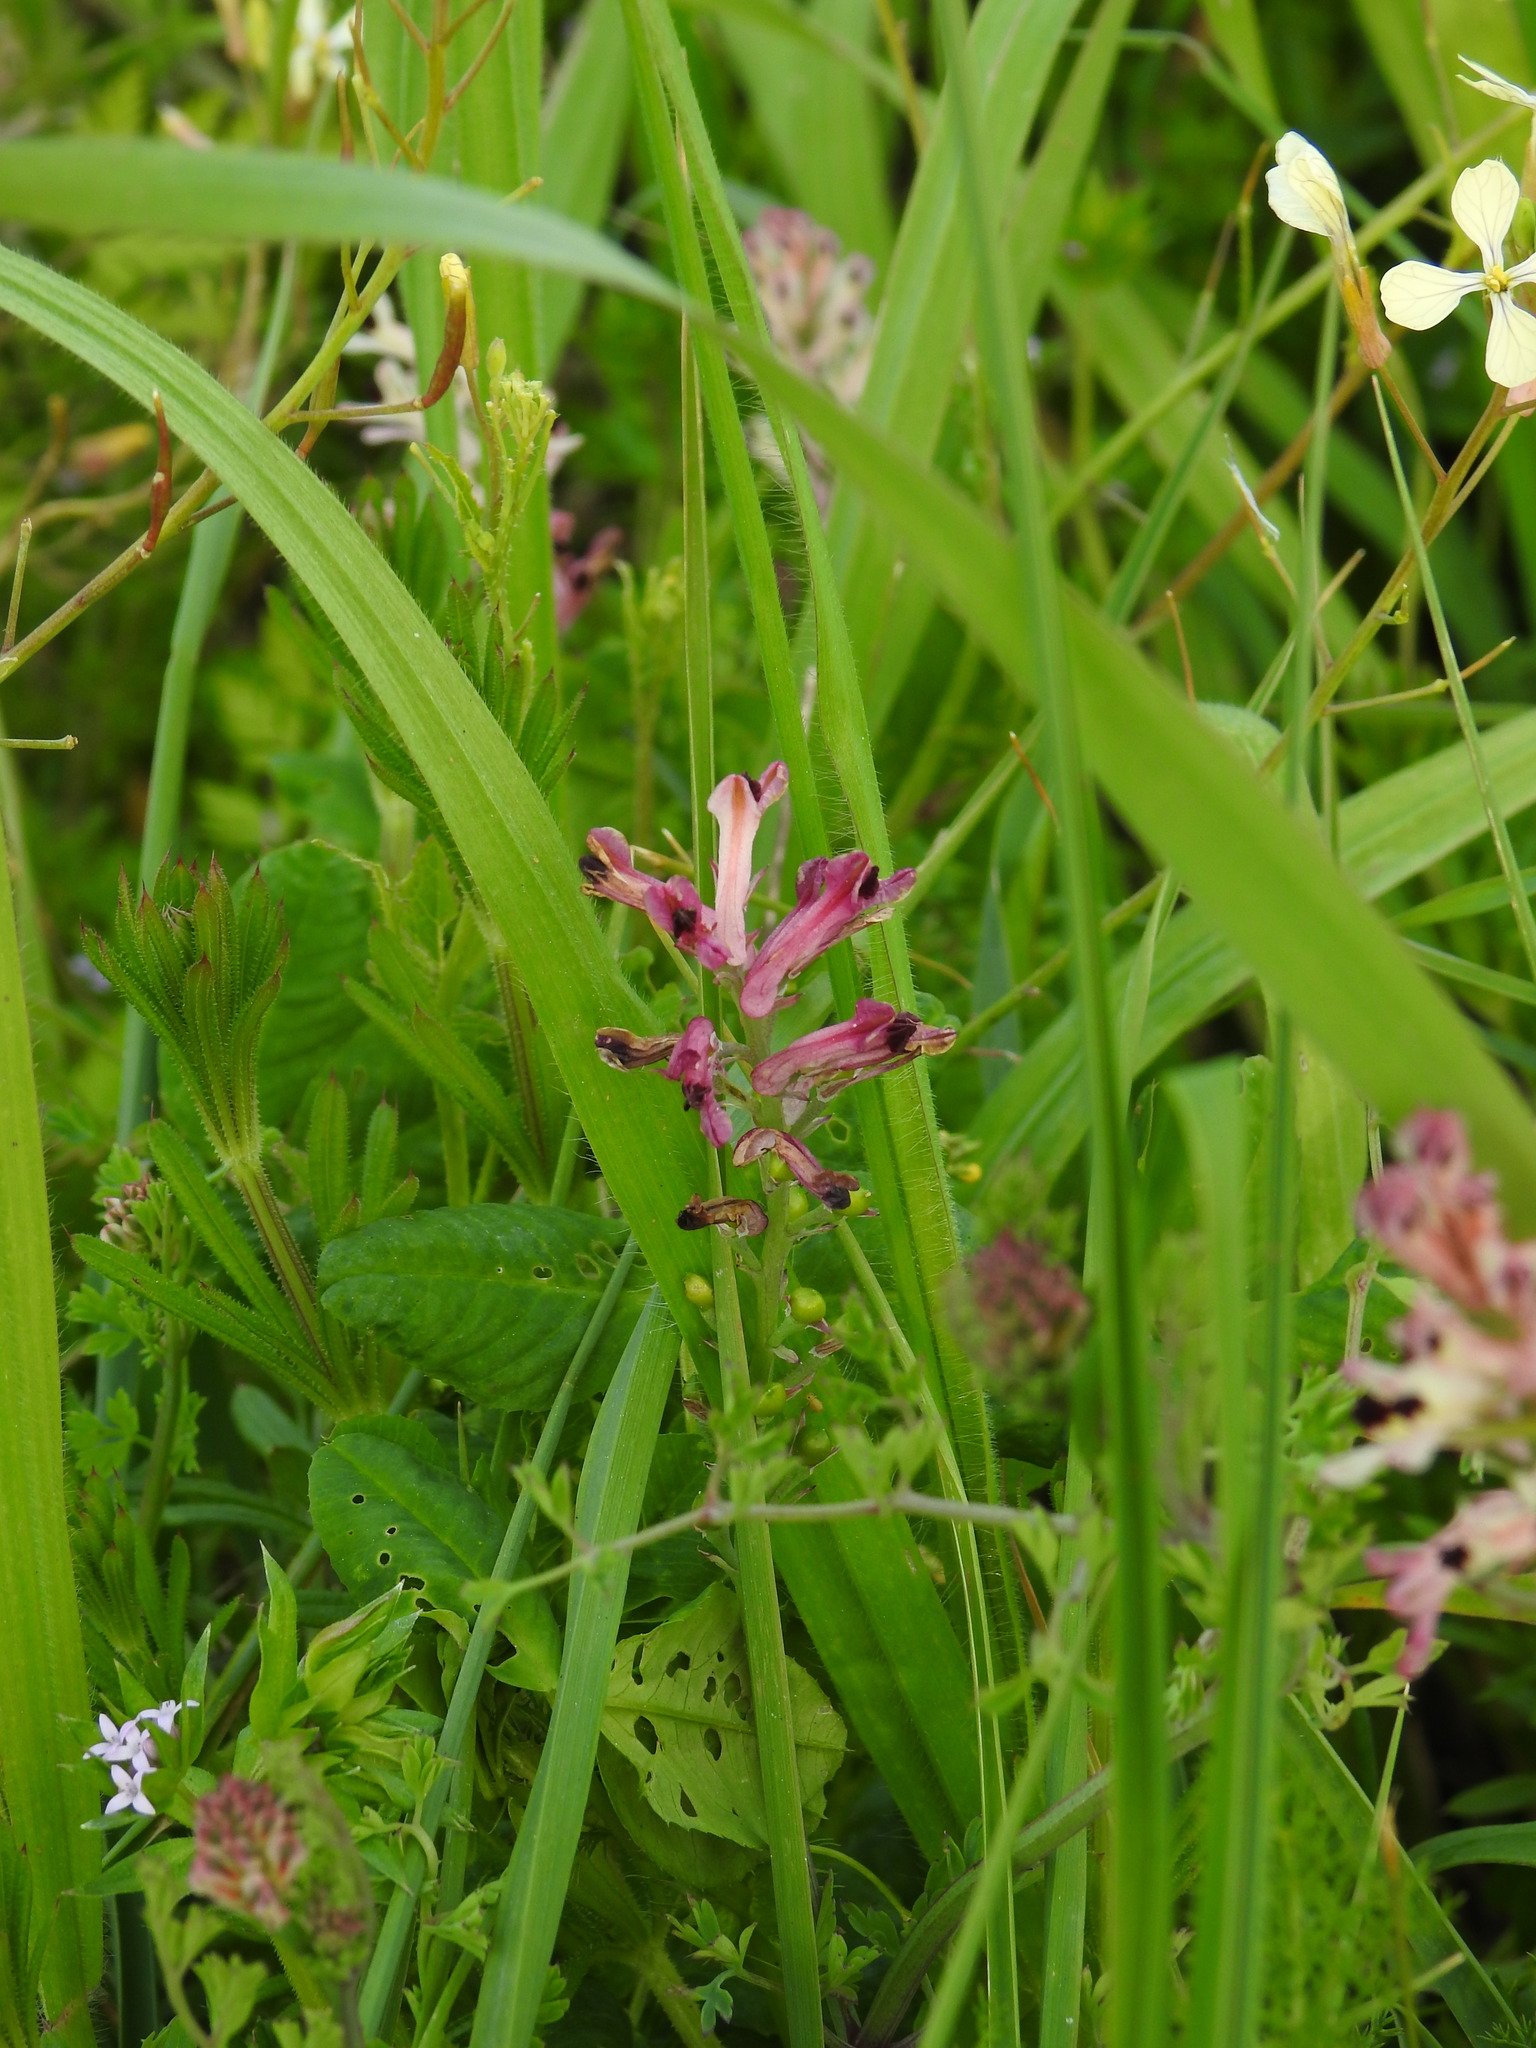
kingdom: Plantae
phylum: Tracheophyta
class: Magnoliopsida
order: Ranunculales
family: Papaveraceae
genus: Fumaria
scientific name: Fumaria agraria
